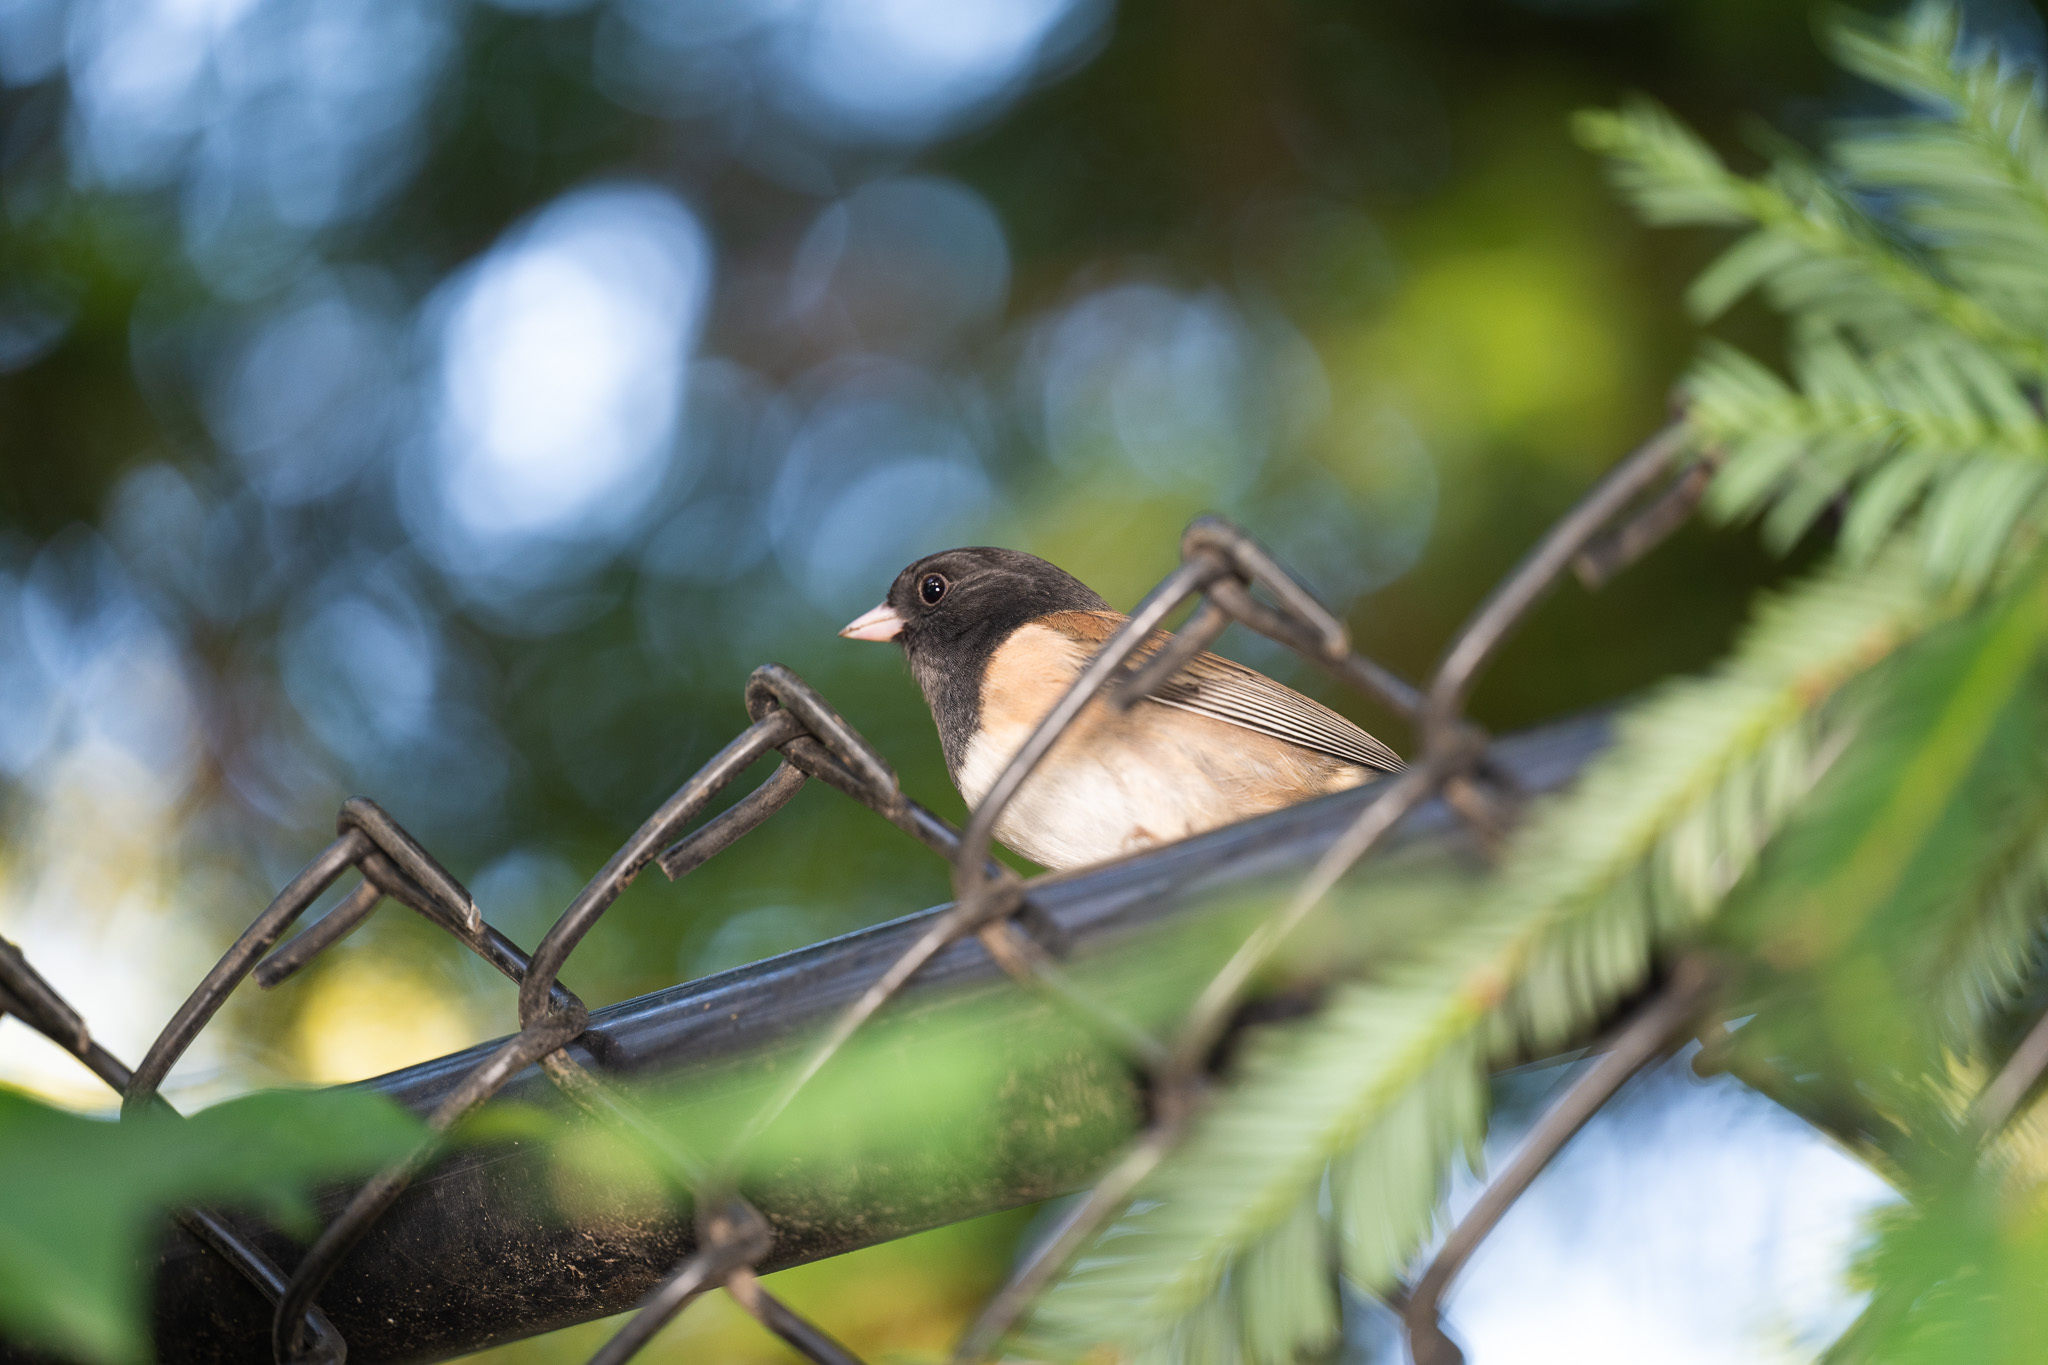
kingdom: Animalia
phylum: Chordata
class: Aves
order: Passeriformes
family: Passerellidae
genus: Junco
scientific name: Junco hyemalis
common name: Dark-eyed junco
